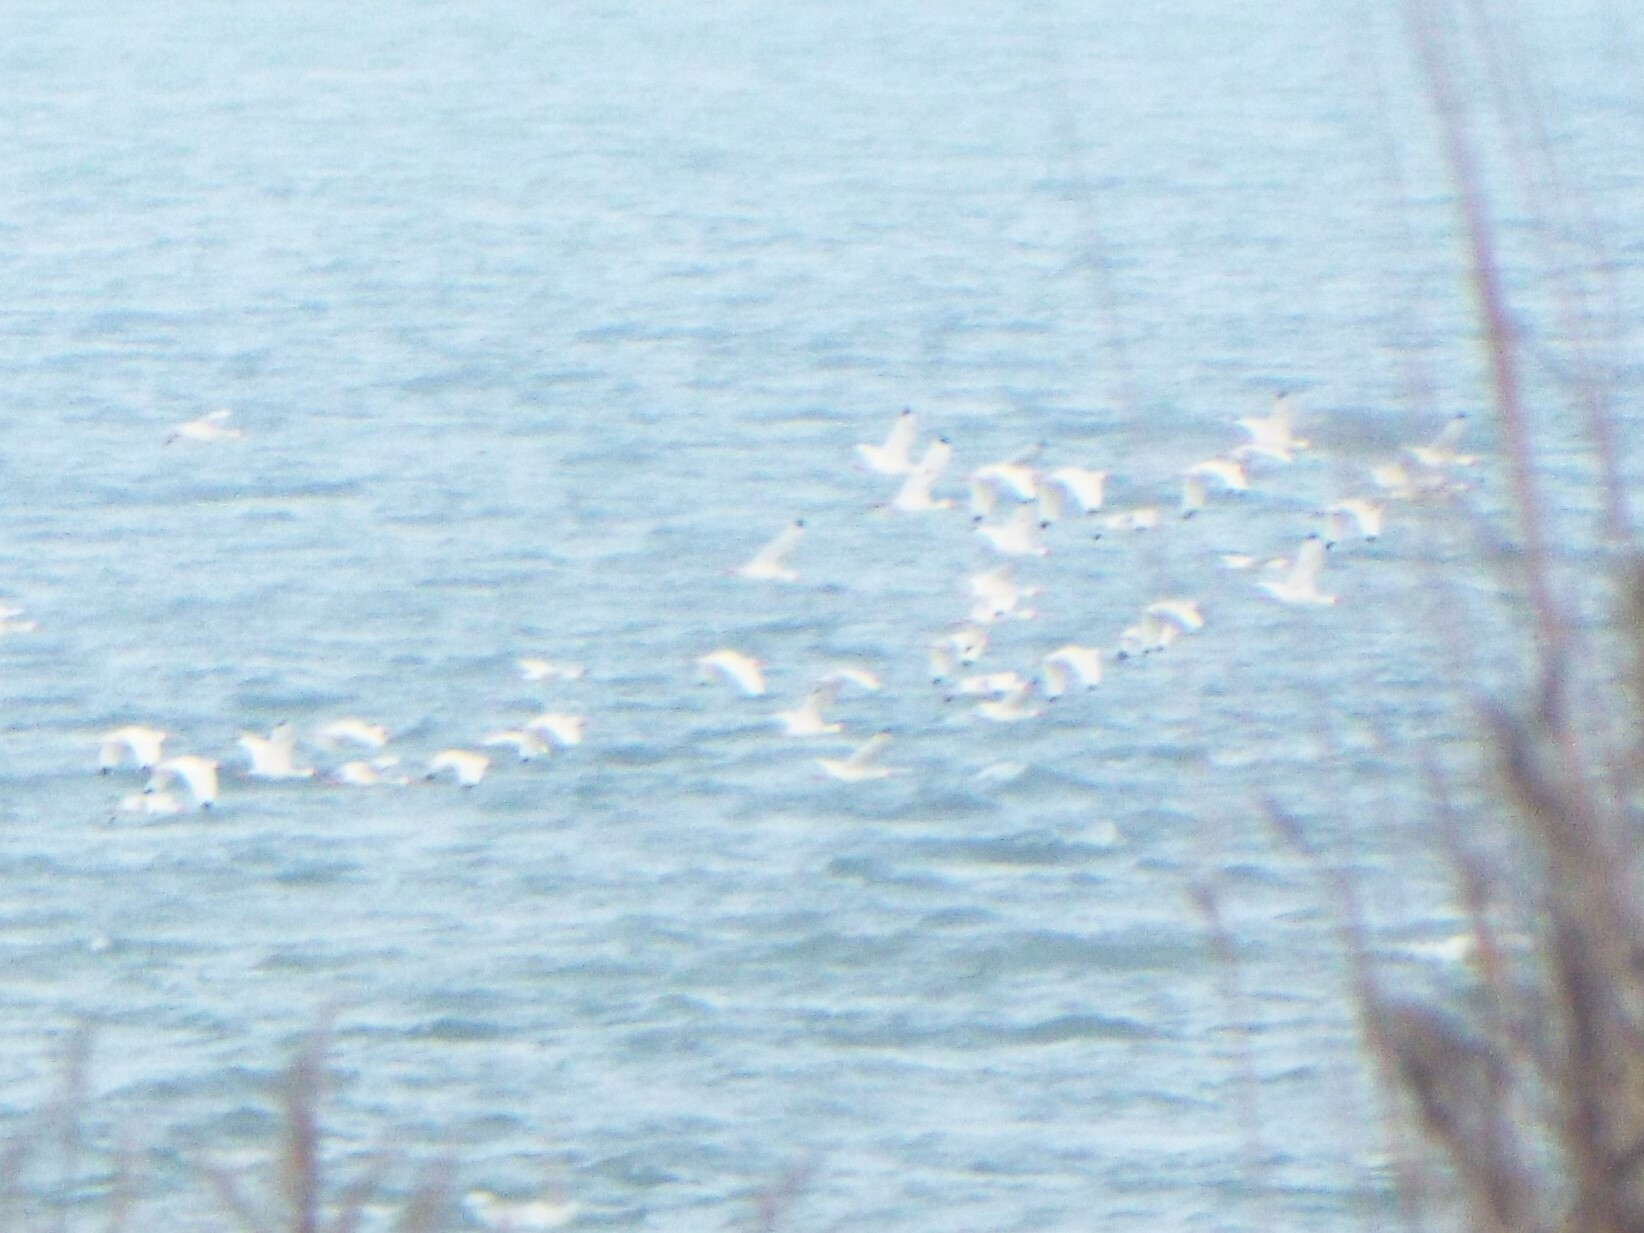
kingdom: Animalia
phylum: Chordata
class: Aves
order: Pelecaniformes
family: Threskiornithidae
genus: Eudocimus
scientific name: Eudocimus albus
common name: White ibis
